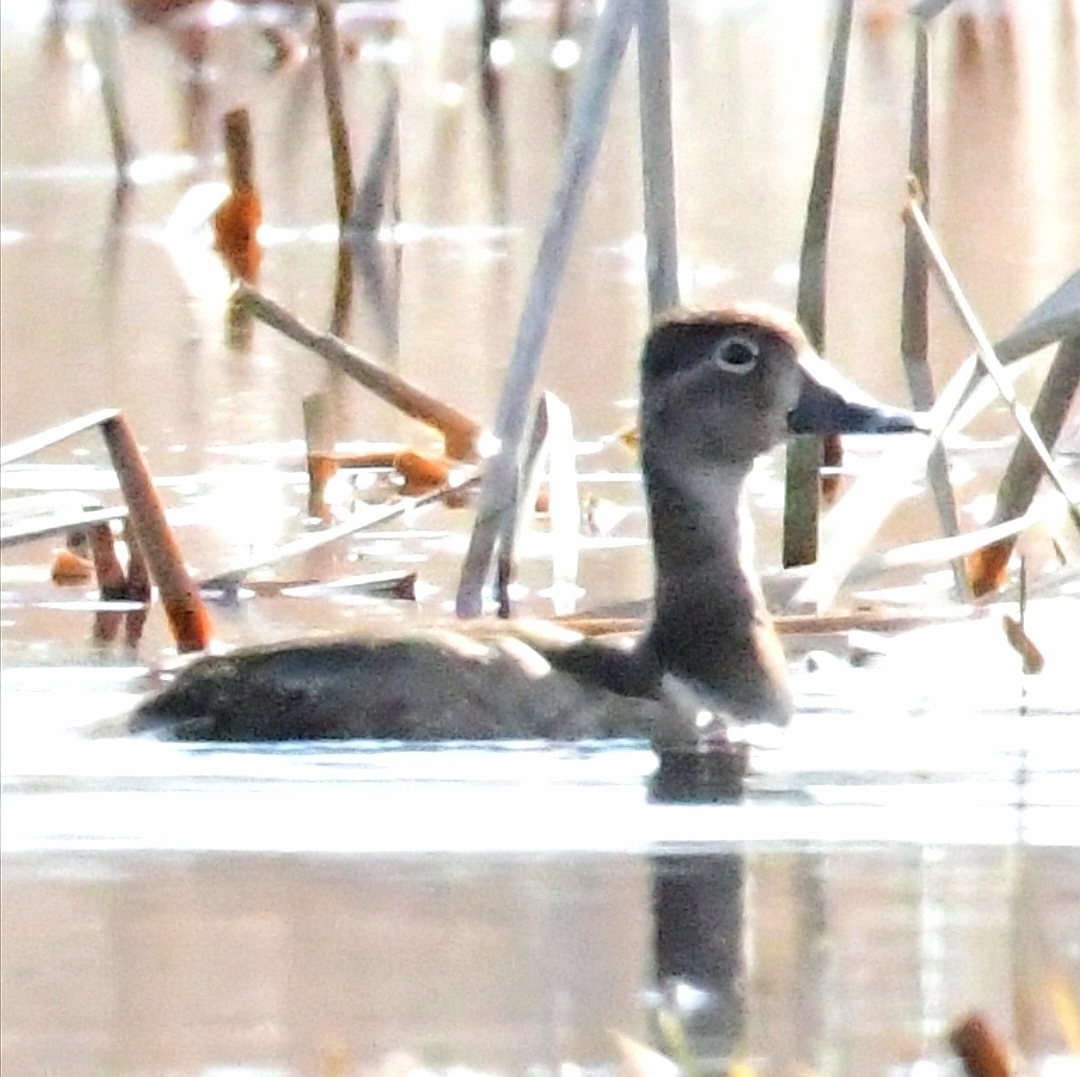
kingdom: Animalia
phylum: Chordata
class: Aves
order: Anseriformes
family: Anatidae
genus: Aythya
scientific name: Aythya collaris
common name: Ring-necked duck
